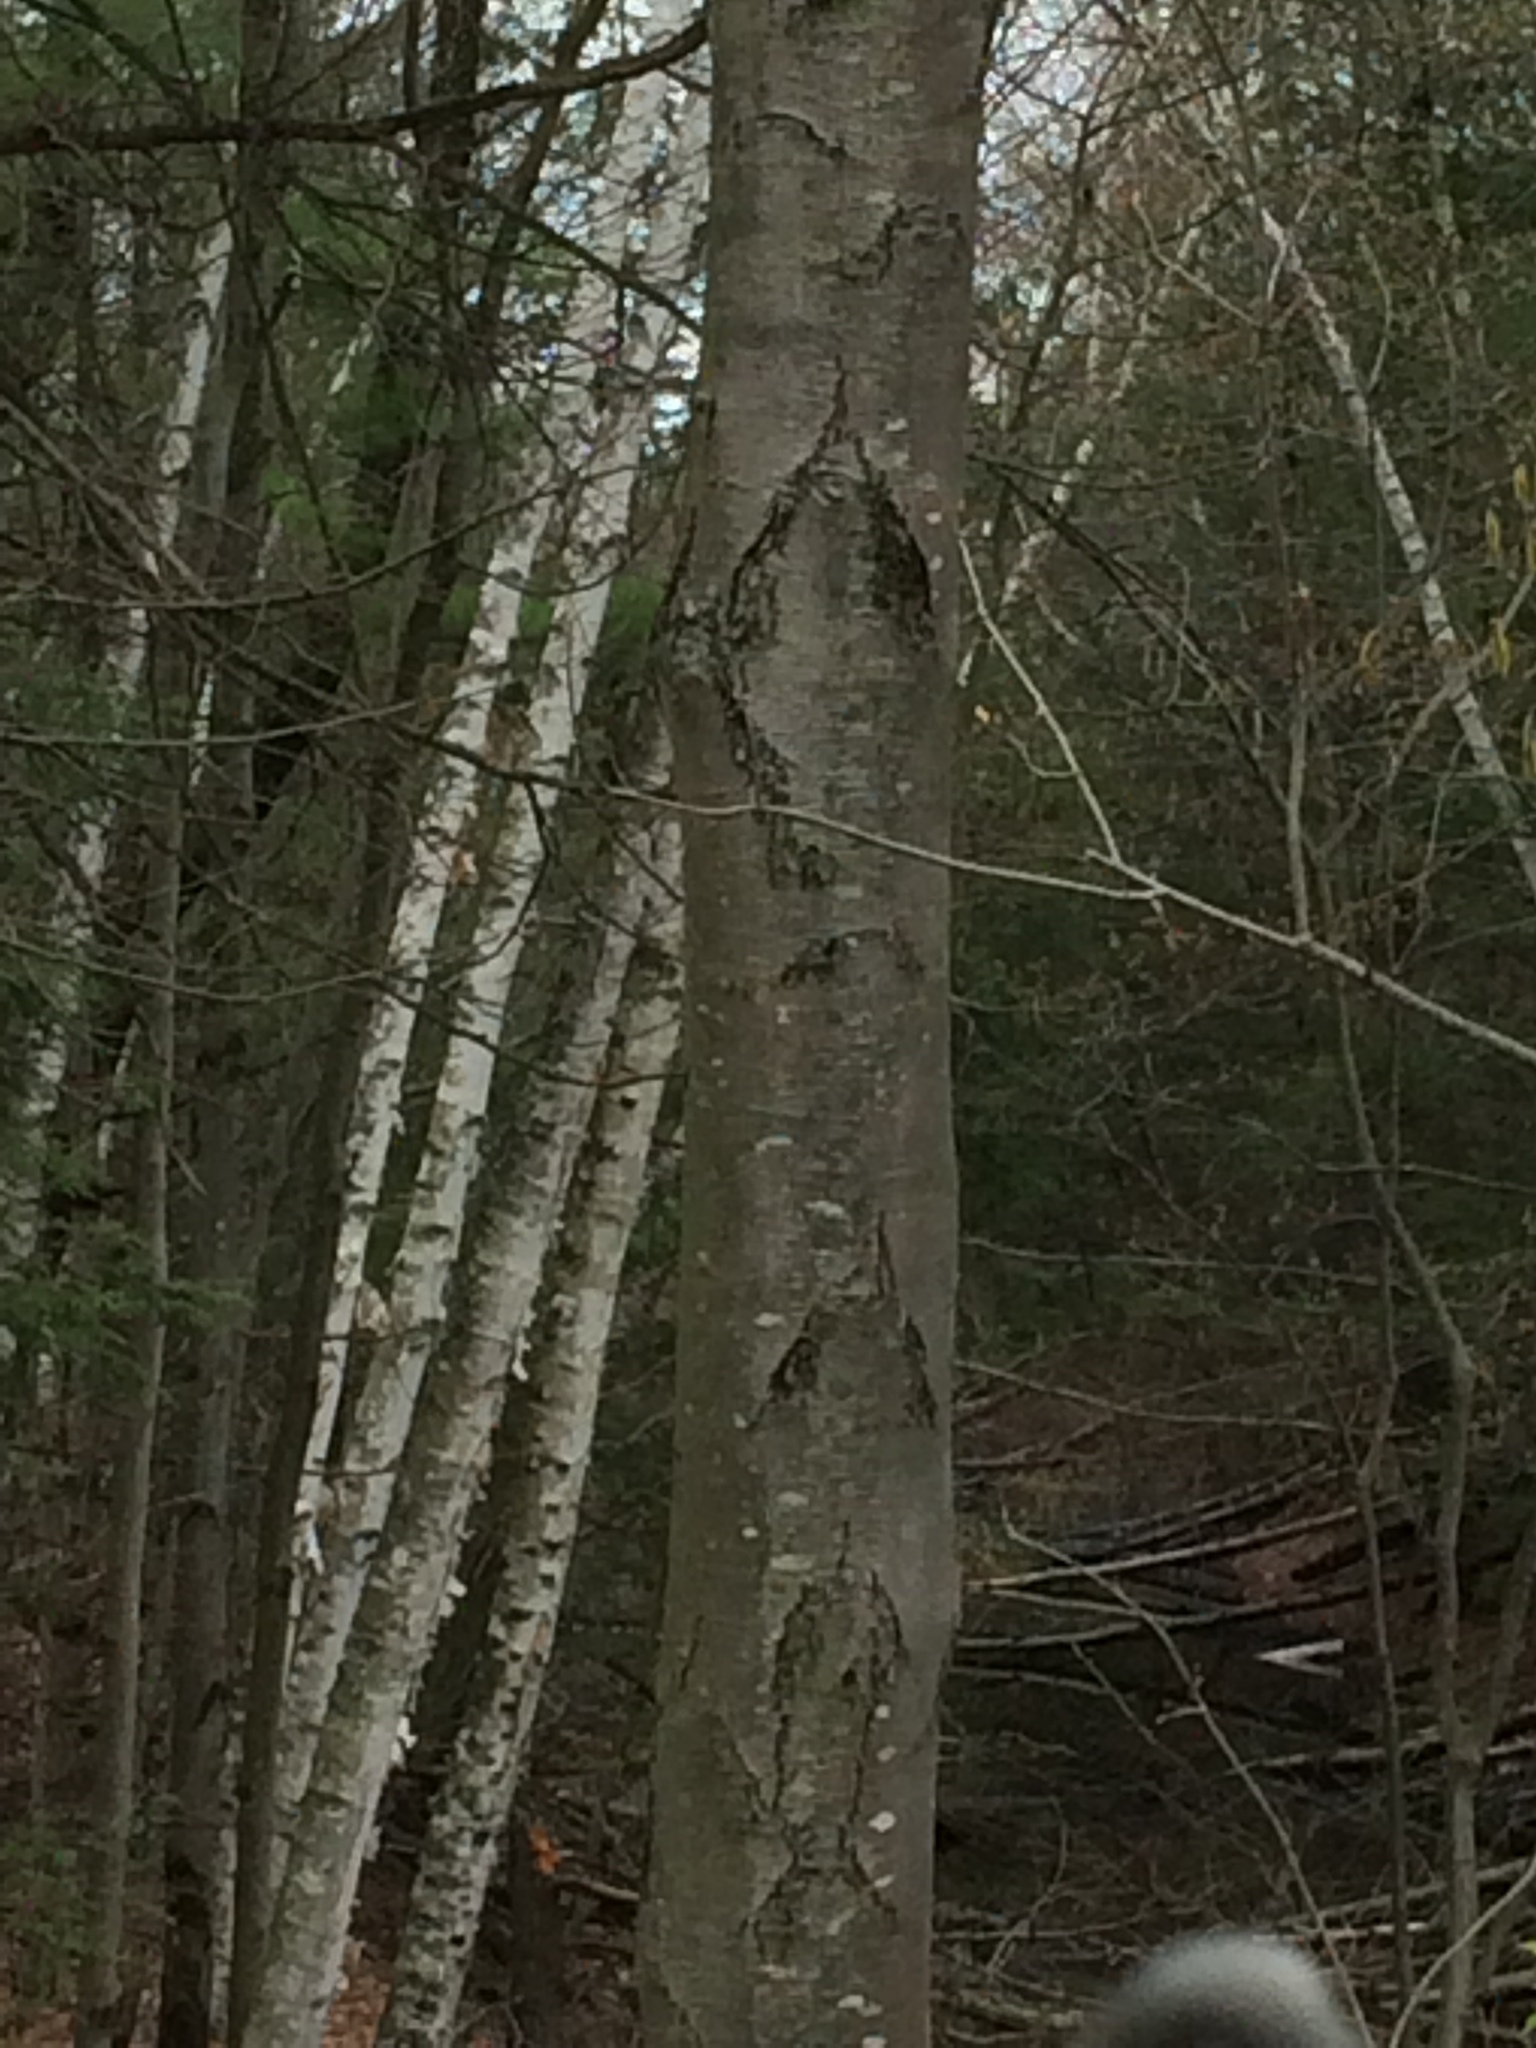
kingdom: Plantae
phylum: Tracheophyta
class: Magnoliopsida
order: Fagales
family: Betulaceae
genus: Betula
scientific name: Betula lenta
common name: Black birch
